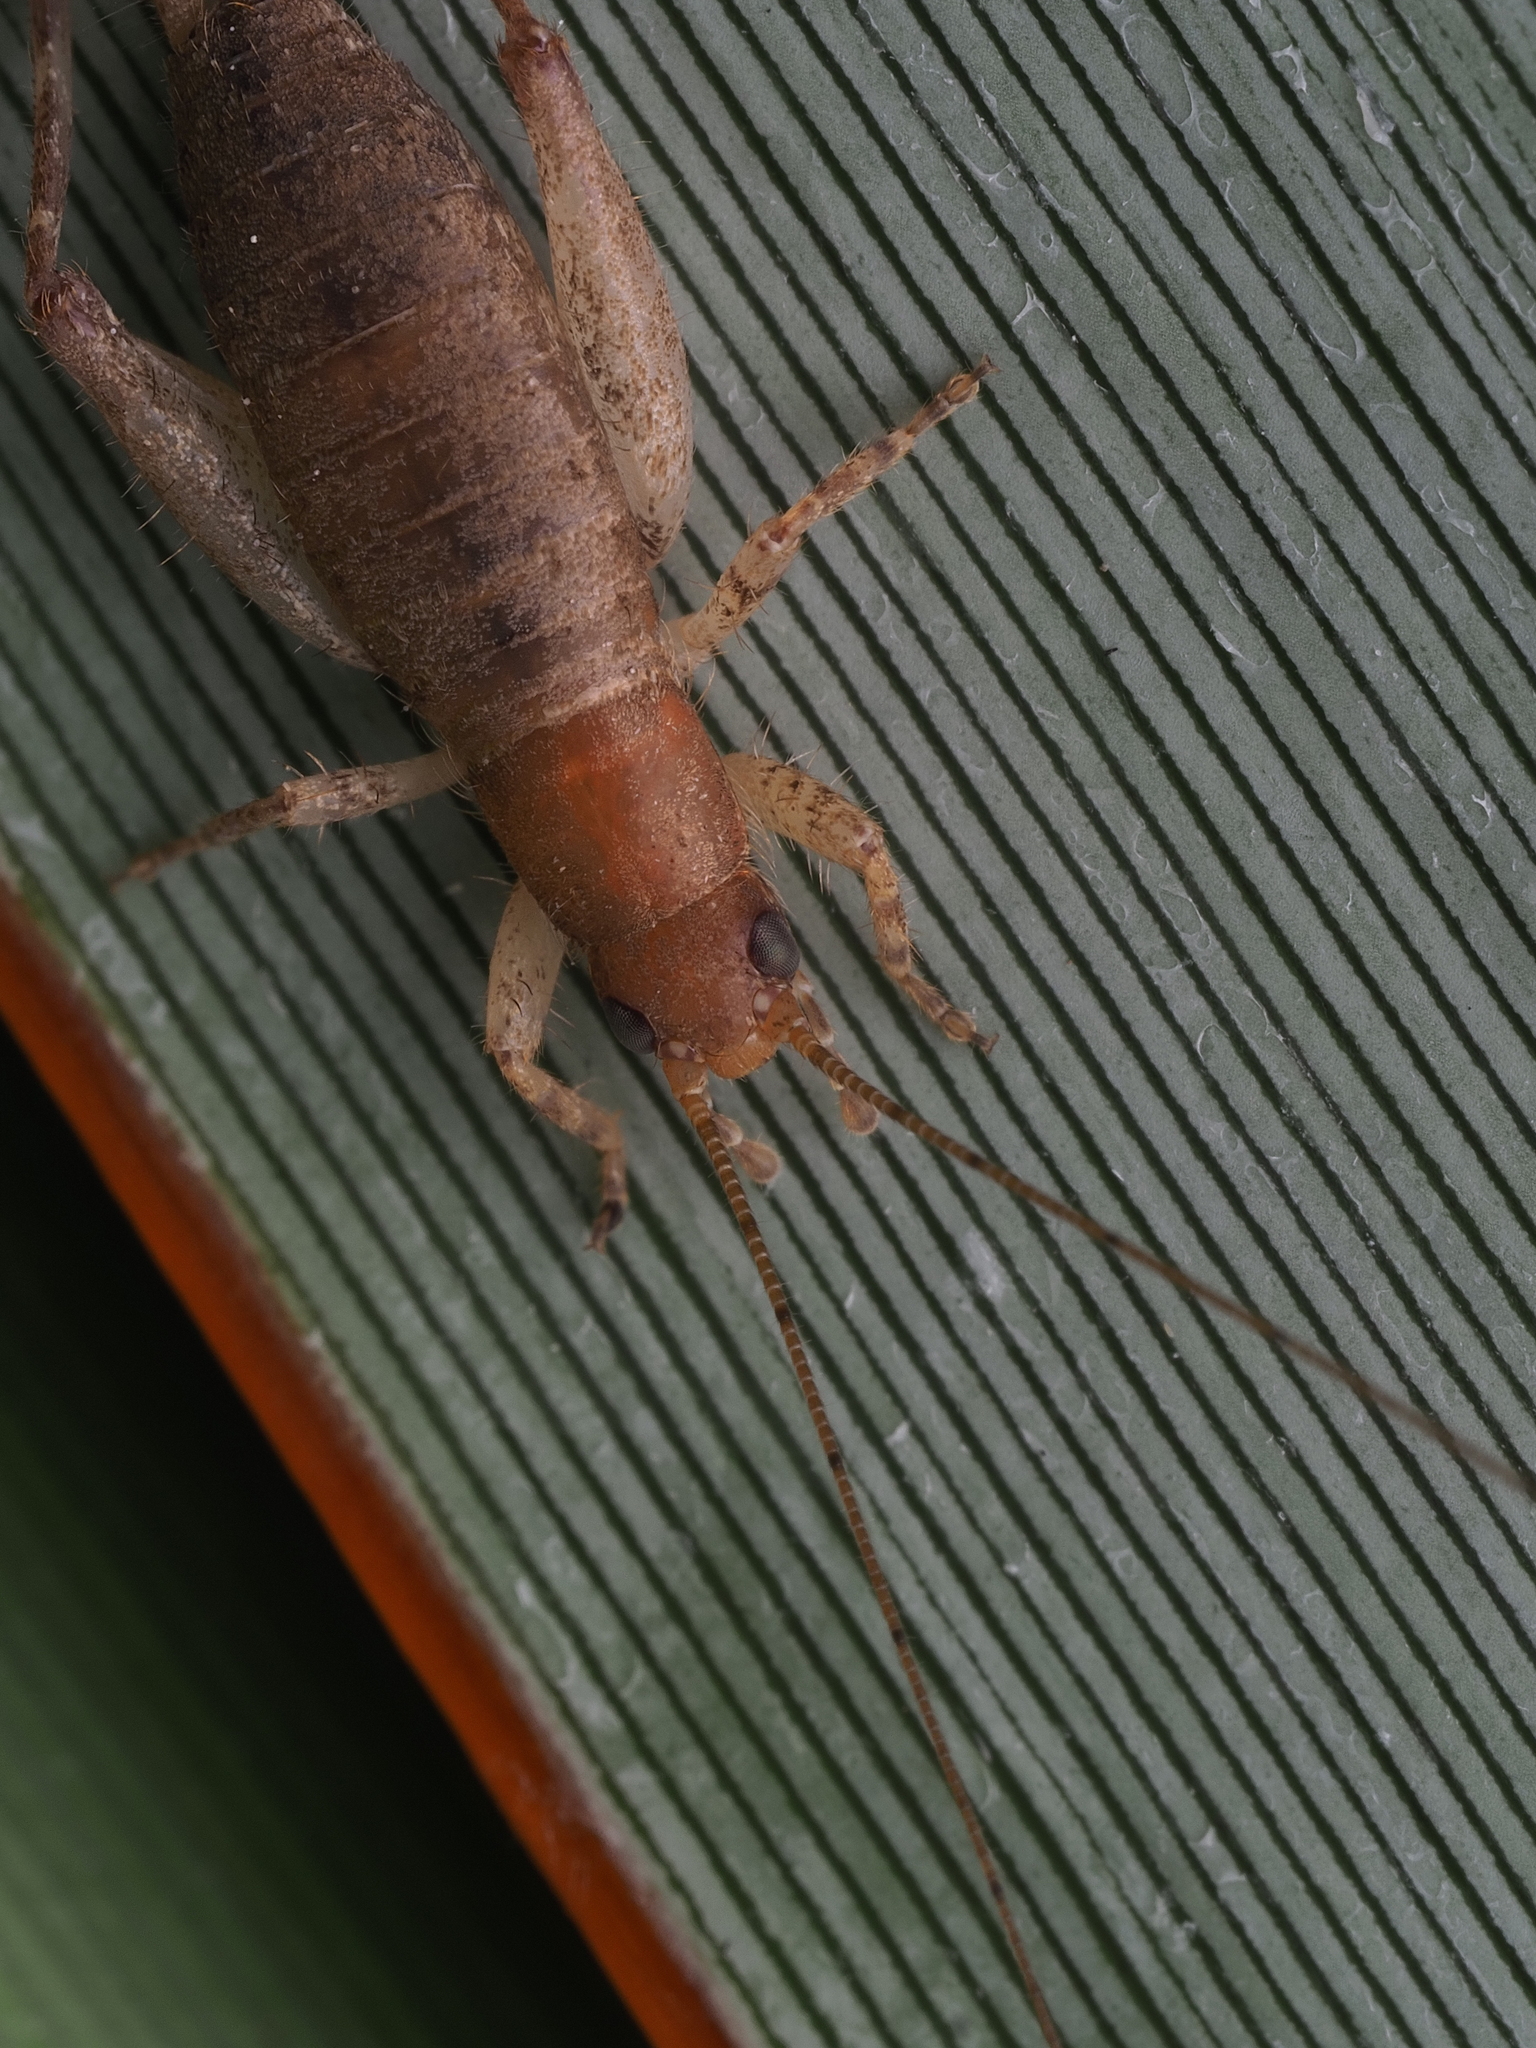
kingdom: Animalia
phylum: Arthropoda
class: Insecta
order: Orthoptera
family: Mogoplistidae
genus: Ornebius
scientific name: Ornebius aperta
